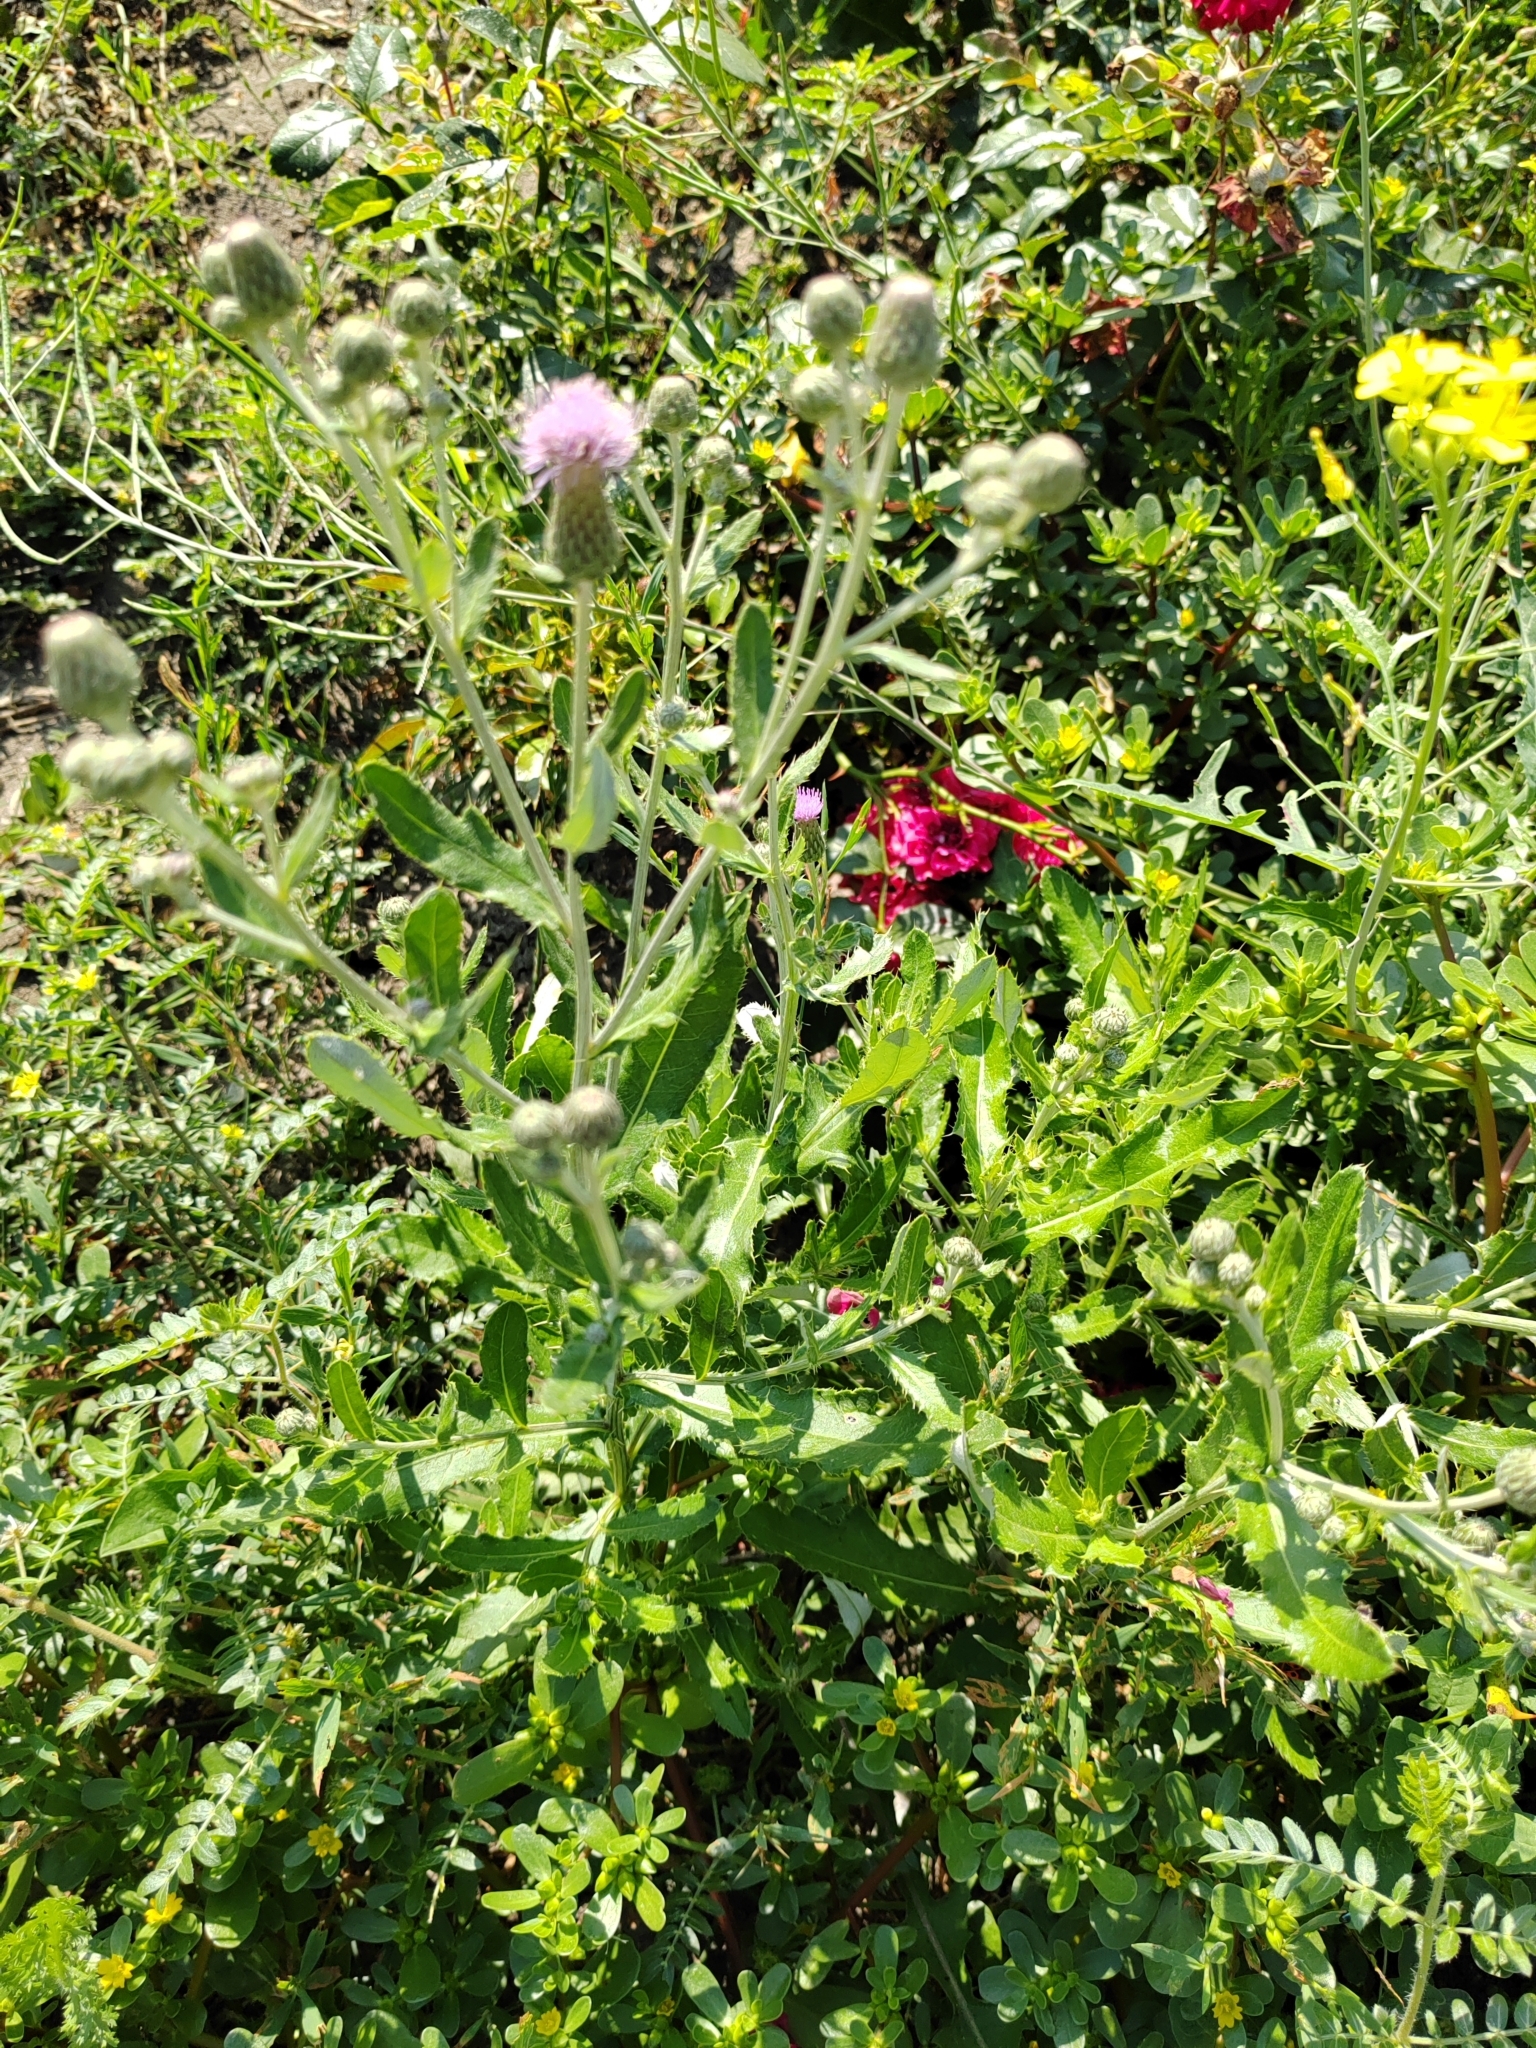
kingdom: Plantae
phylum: Tracheophyta
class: Magnoliopsida
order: Asterales
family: Asteraceae
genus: Cirsium
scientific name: Cirsium arvense
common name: Creeping thistle
